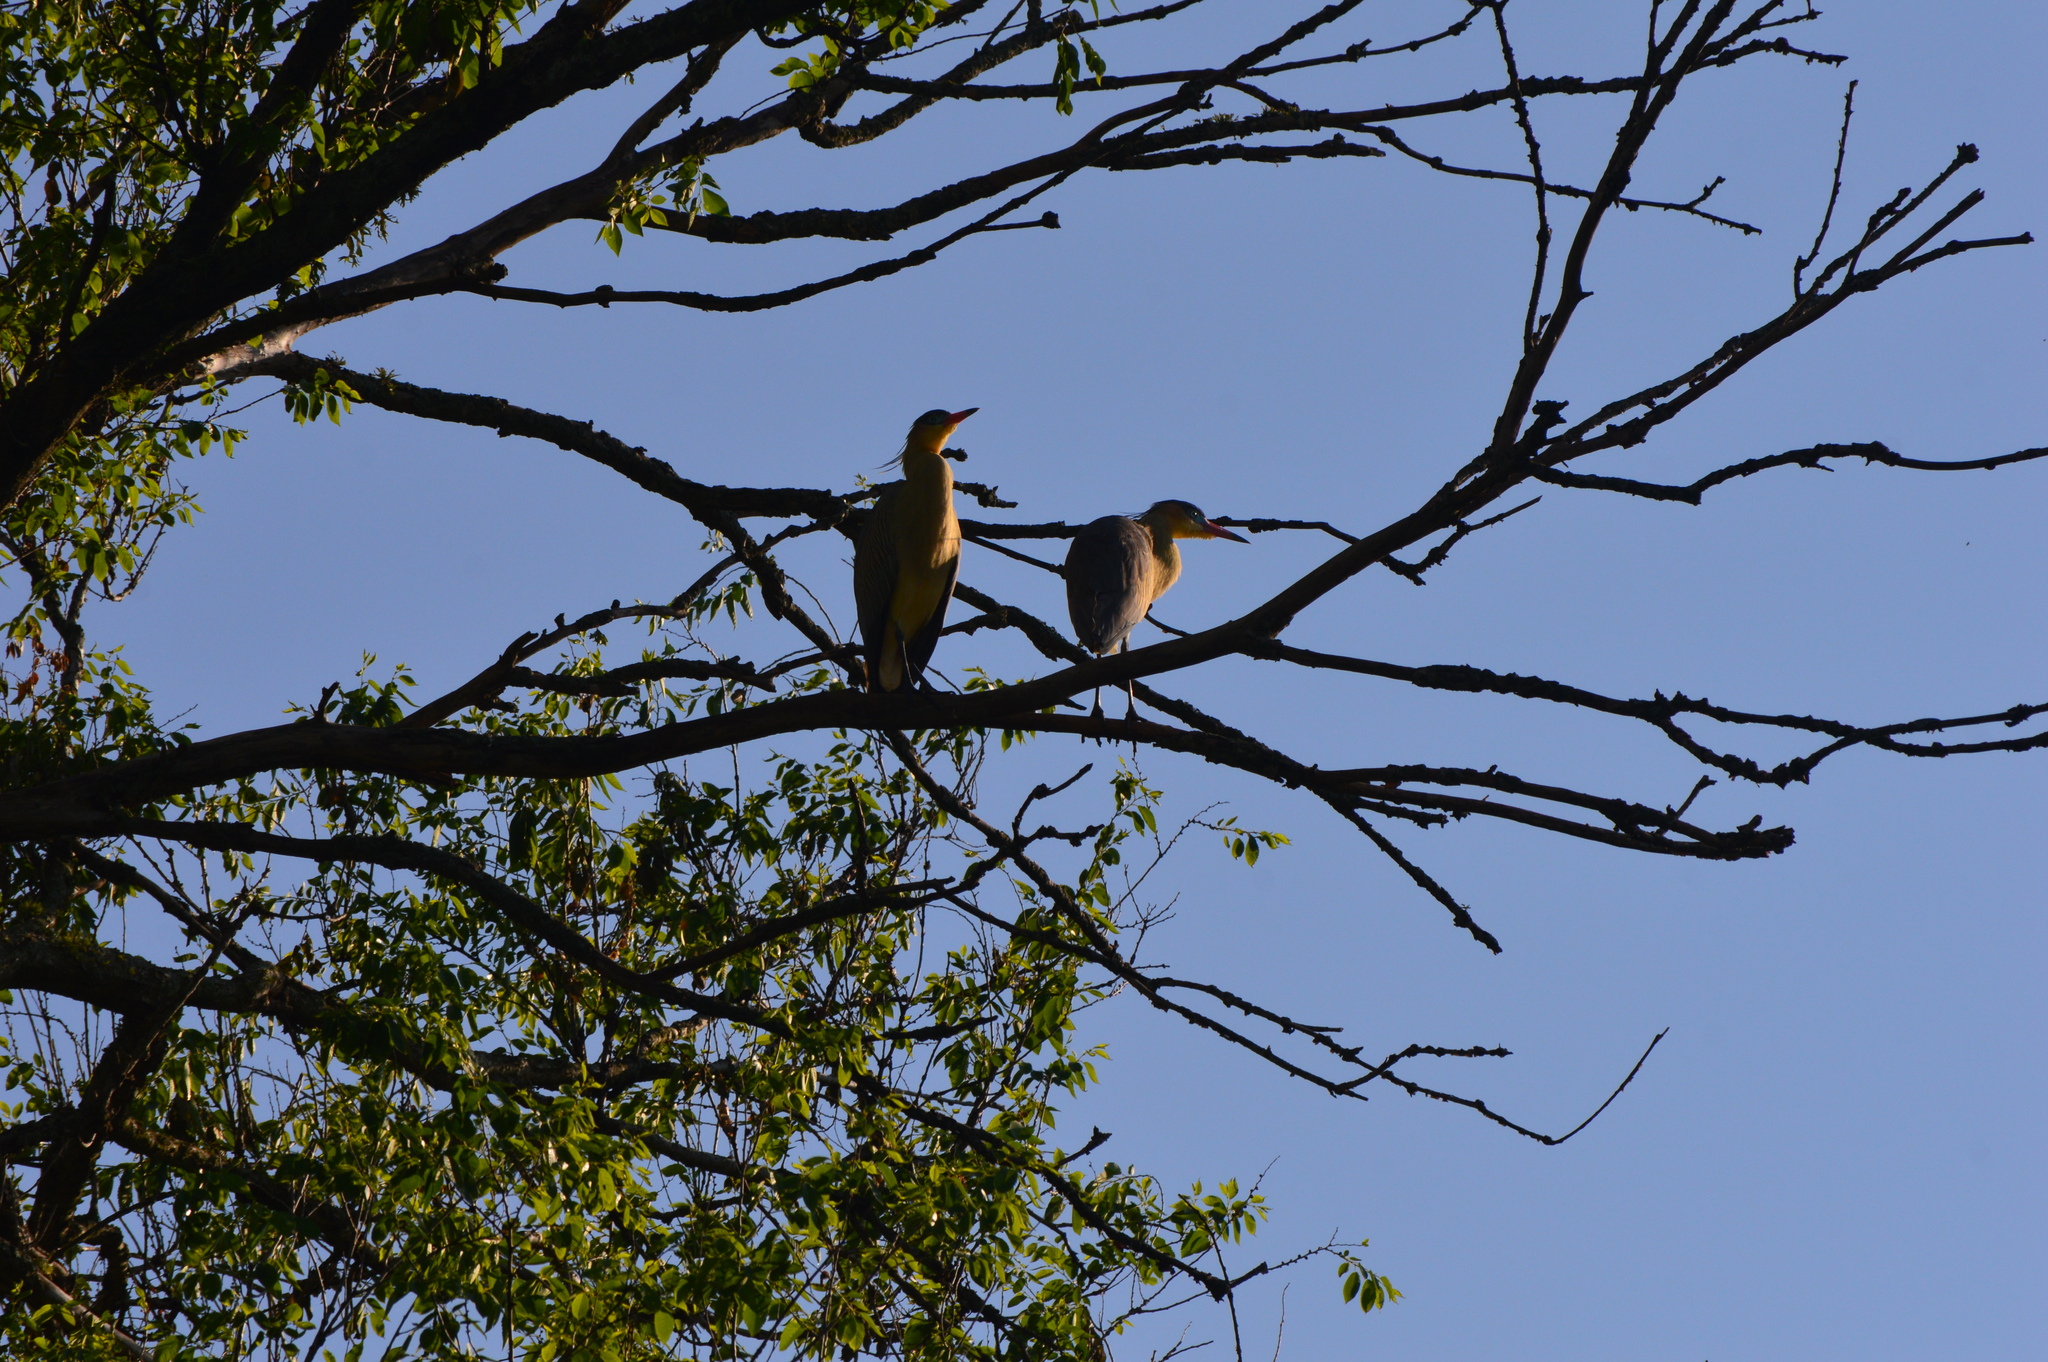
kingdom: Animalia
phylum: Chordata
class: Aves
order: Pelecaniformes
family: Ardeidae
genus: Syrigma
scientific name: Syrigma sibilatrix
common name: Whistling heron
